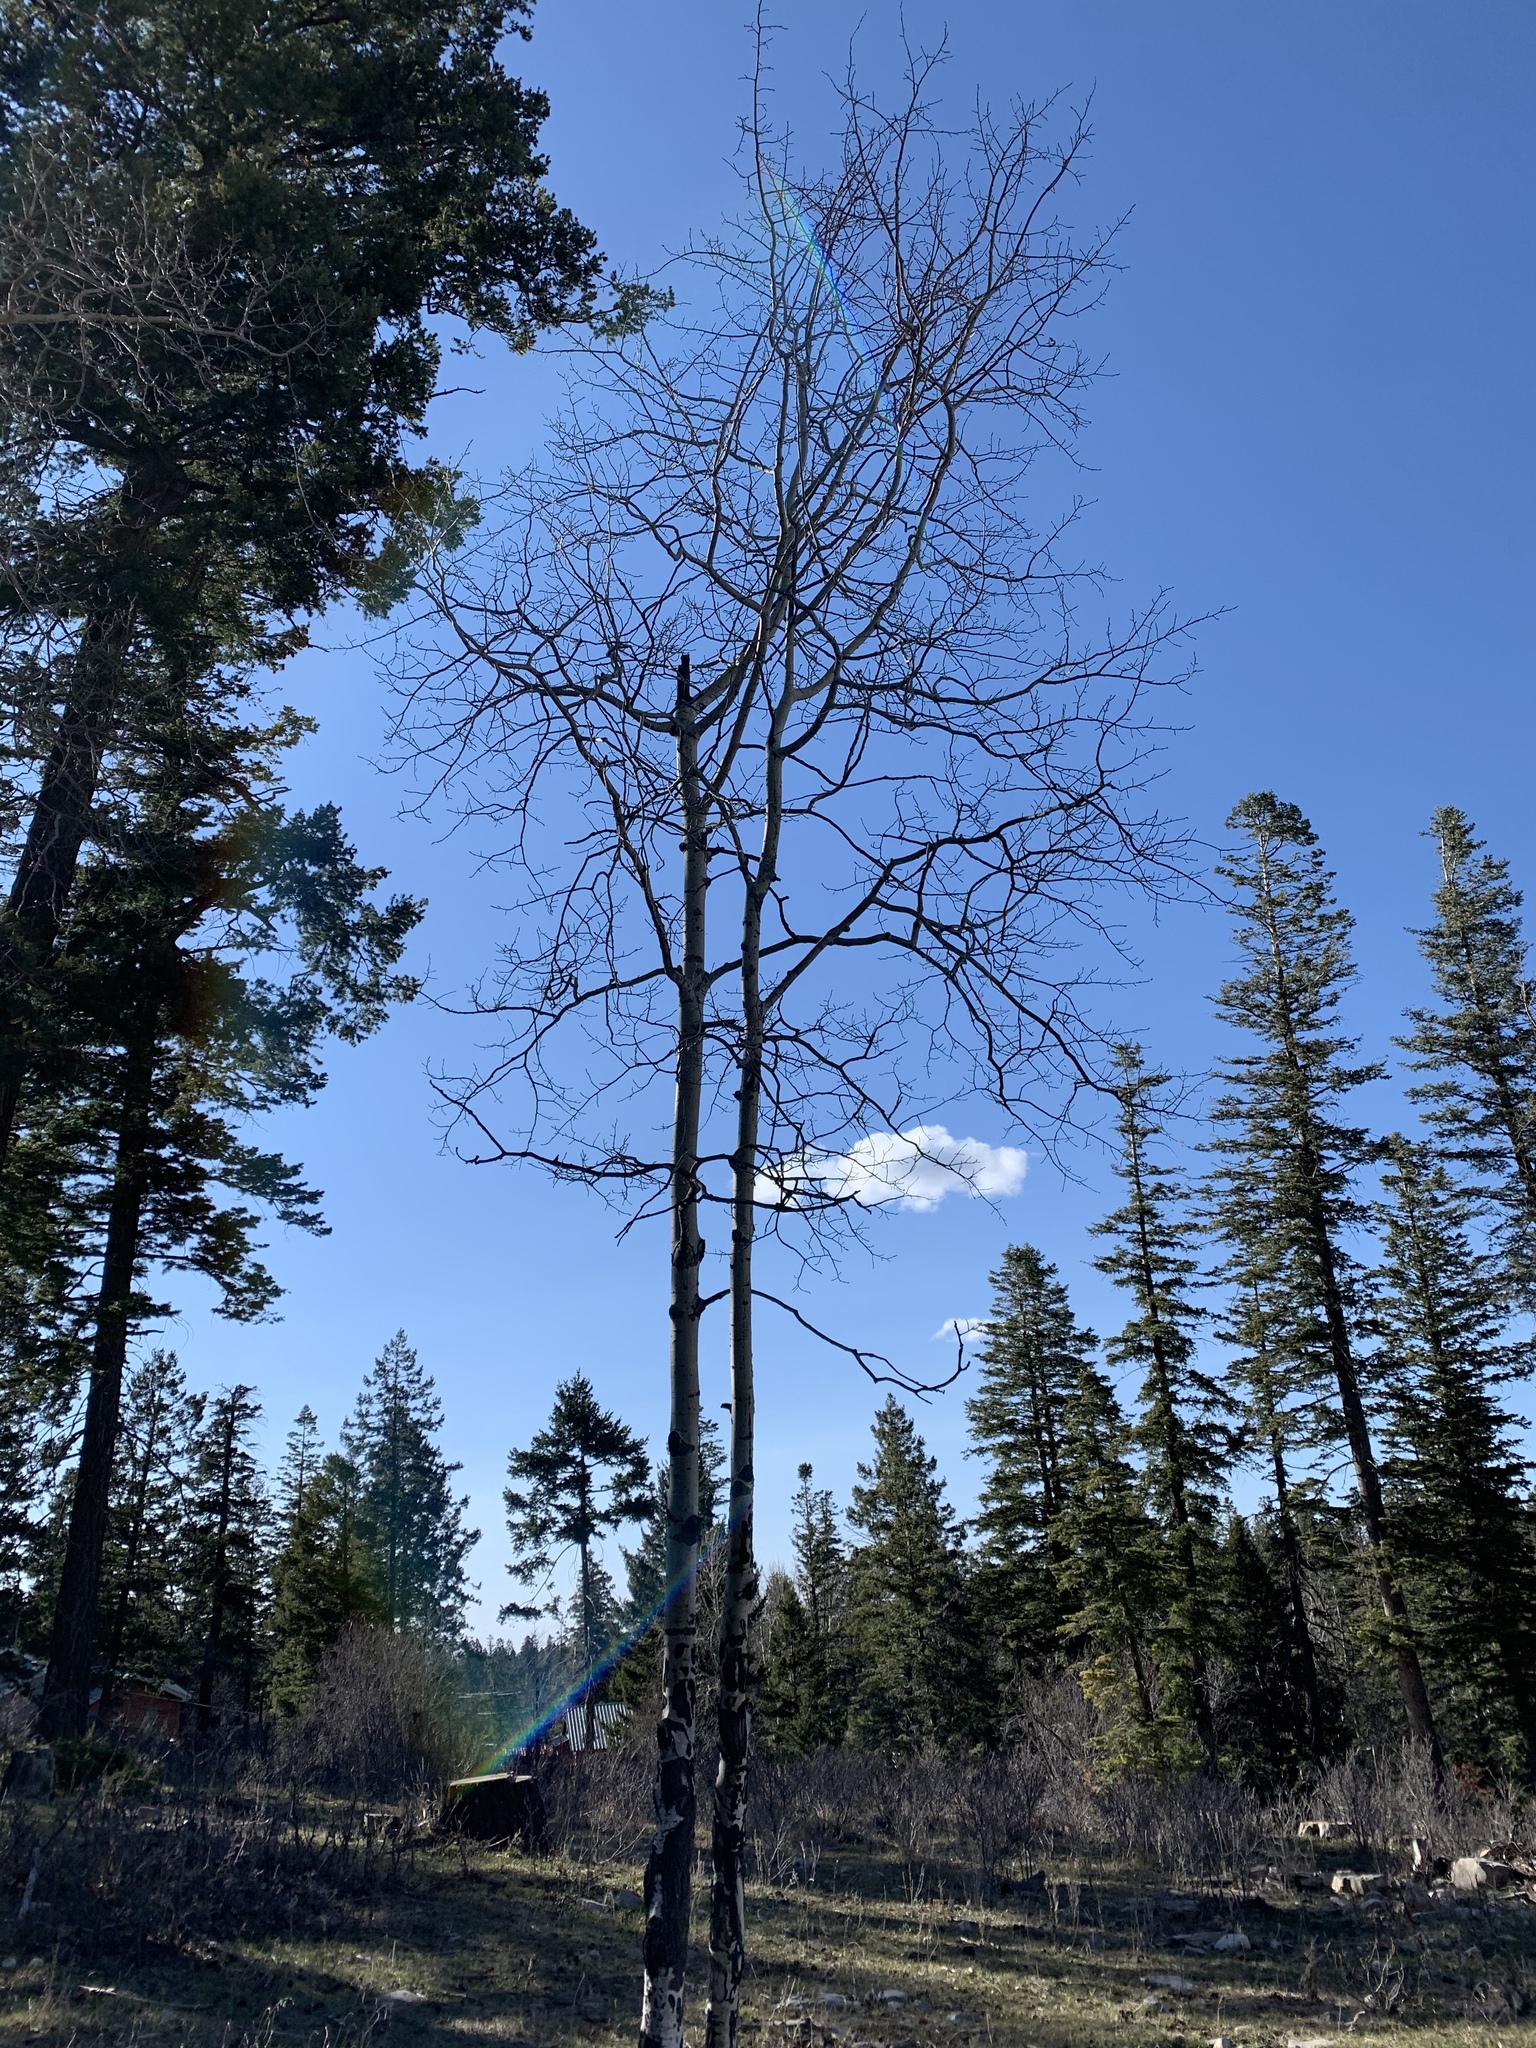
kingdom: Plantae
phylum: Tracheophyta
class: Magnoliopsida
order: Malpighiales
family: Salicaceae
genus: Populus
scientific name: Populus tremuloides
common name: Quaking aspen
